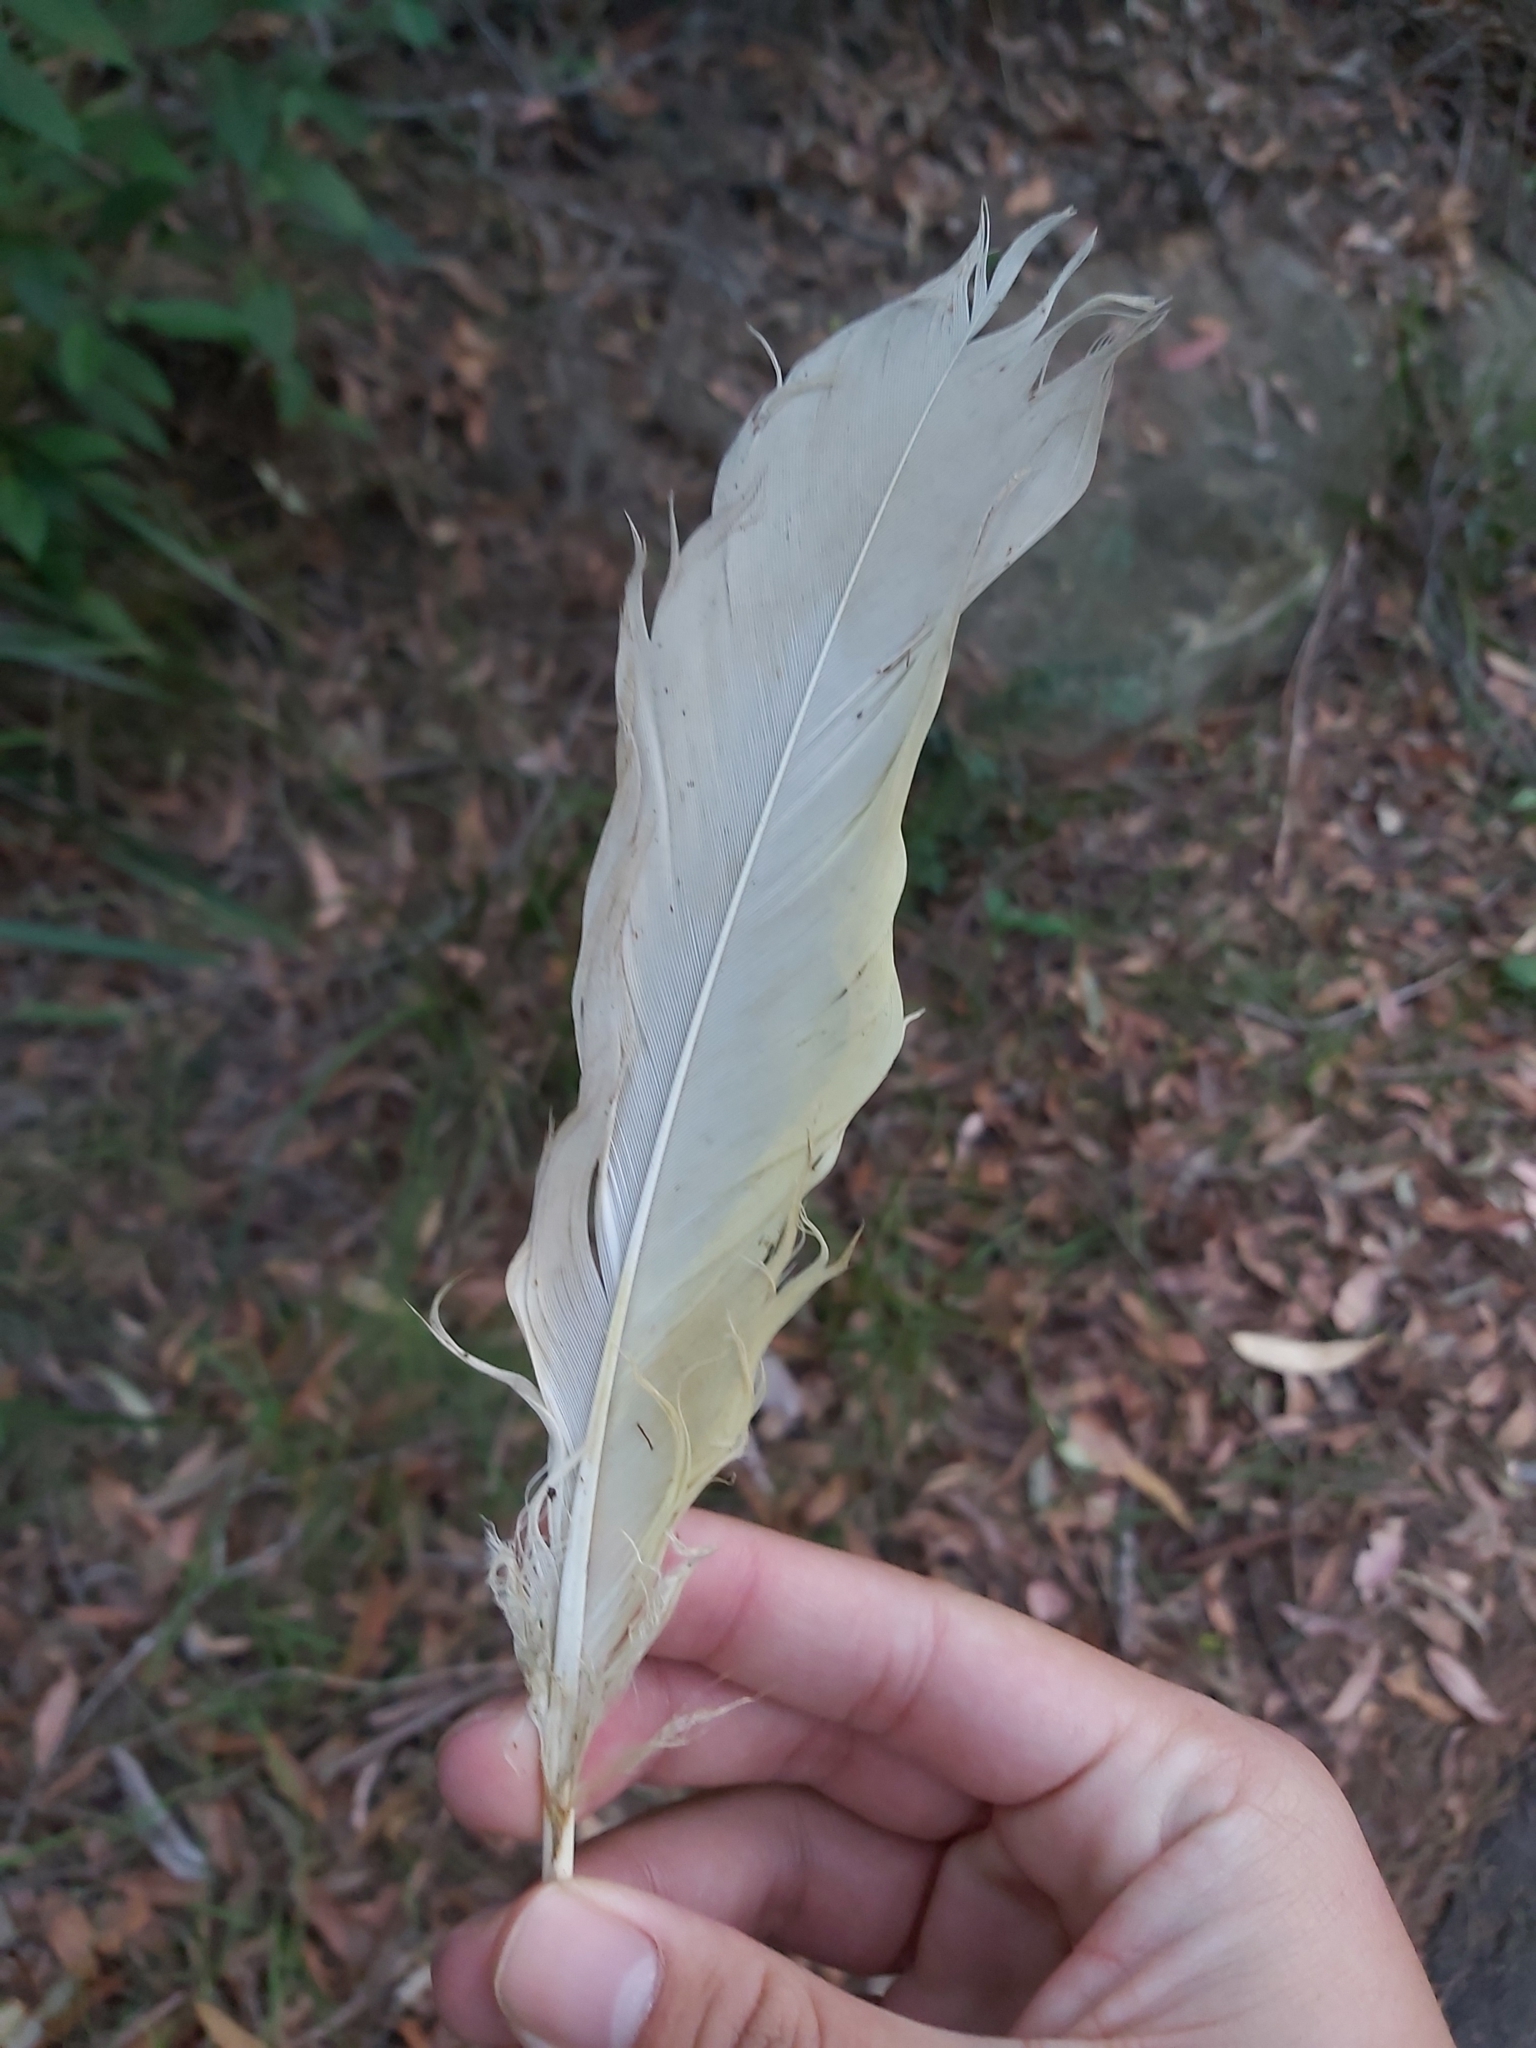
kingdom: Animalia
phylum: Chordata
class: Aves
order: Psittaciformes
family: Psittacidae
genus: Cacatua
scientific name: Cacatua galerita
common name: Sulphur-crested cockatoo
